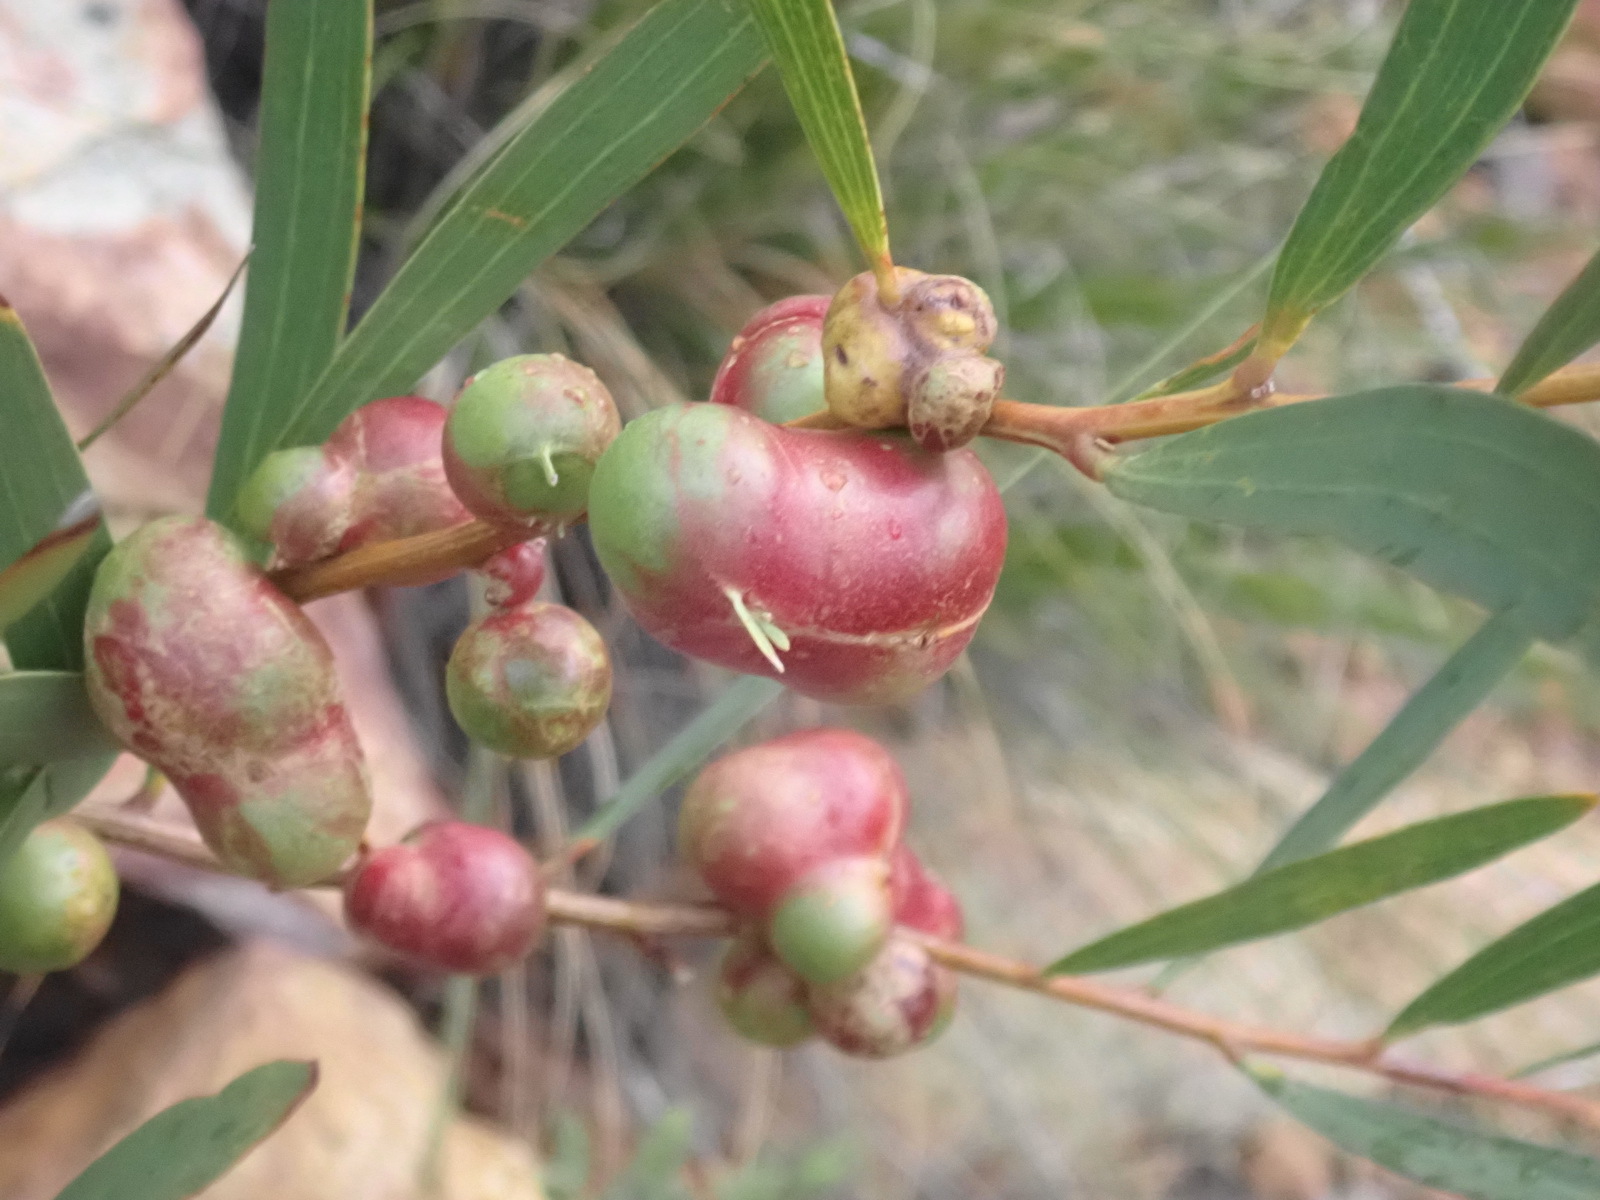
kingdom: Animalia
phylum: Arthropoda
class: Insecta
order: Hymenoptera
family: Pteromalidae
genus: Trichilogaster
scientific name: Trichilogaster acaciaelongifoliae
